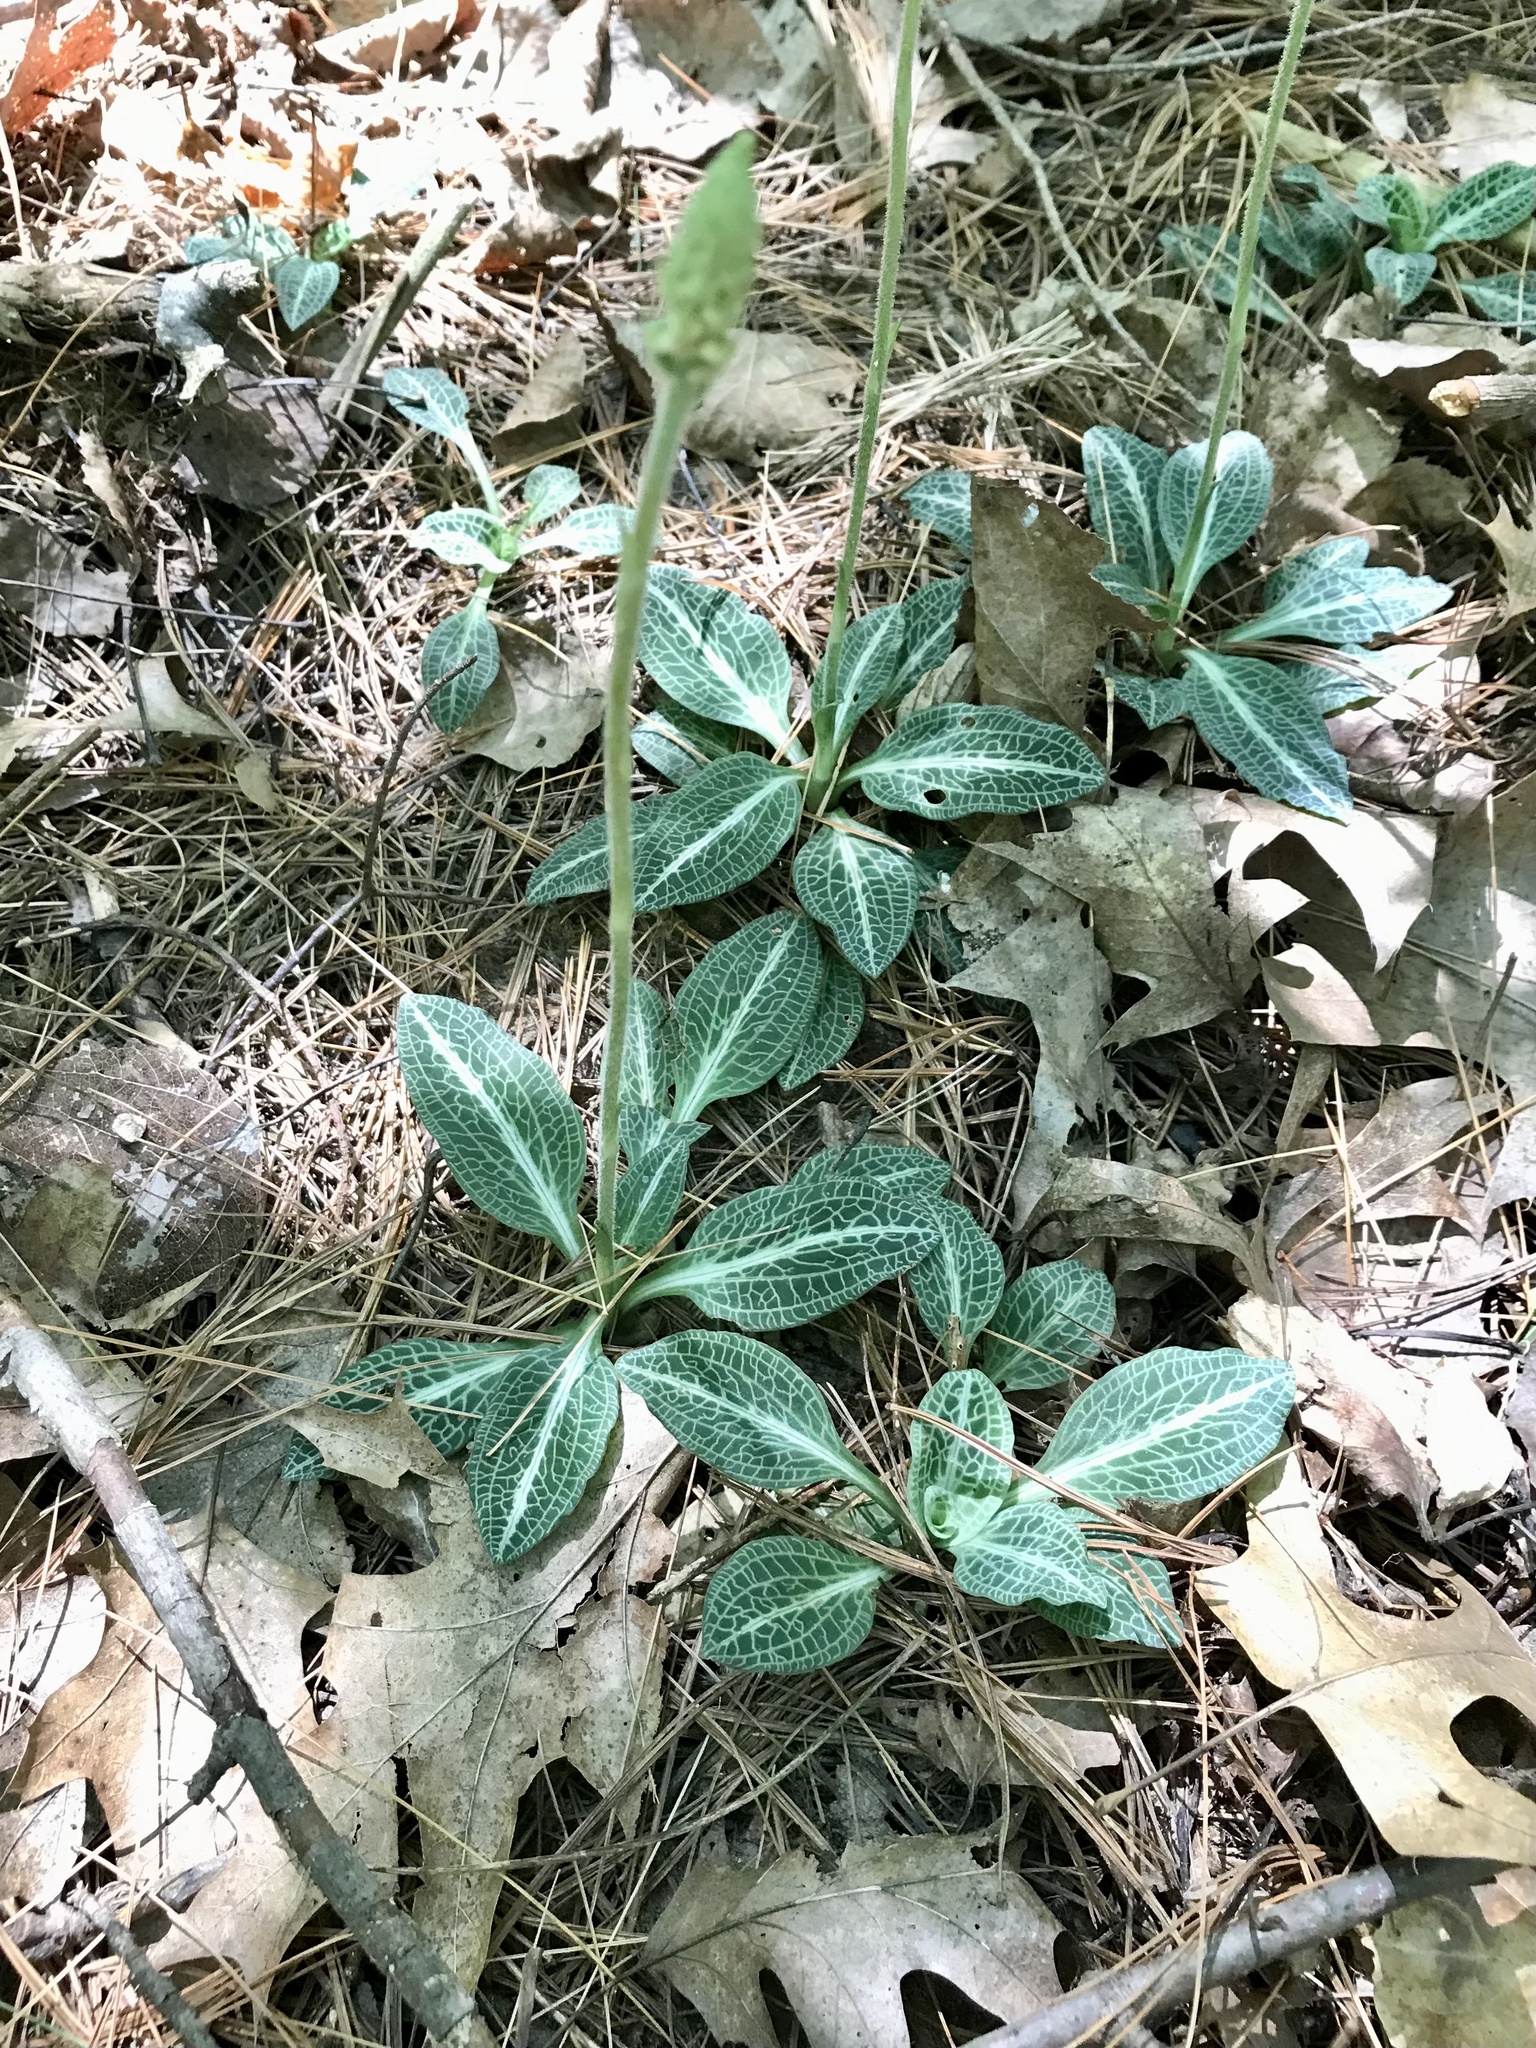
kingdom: Plantae
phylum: Tracheophyta
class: Liliopsida
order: Asparagales
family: Orchidaceae
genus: Goodyera
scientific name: Goodyera pubescens
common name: Downy rattlesnake-plantain
